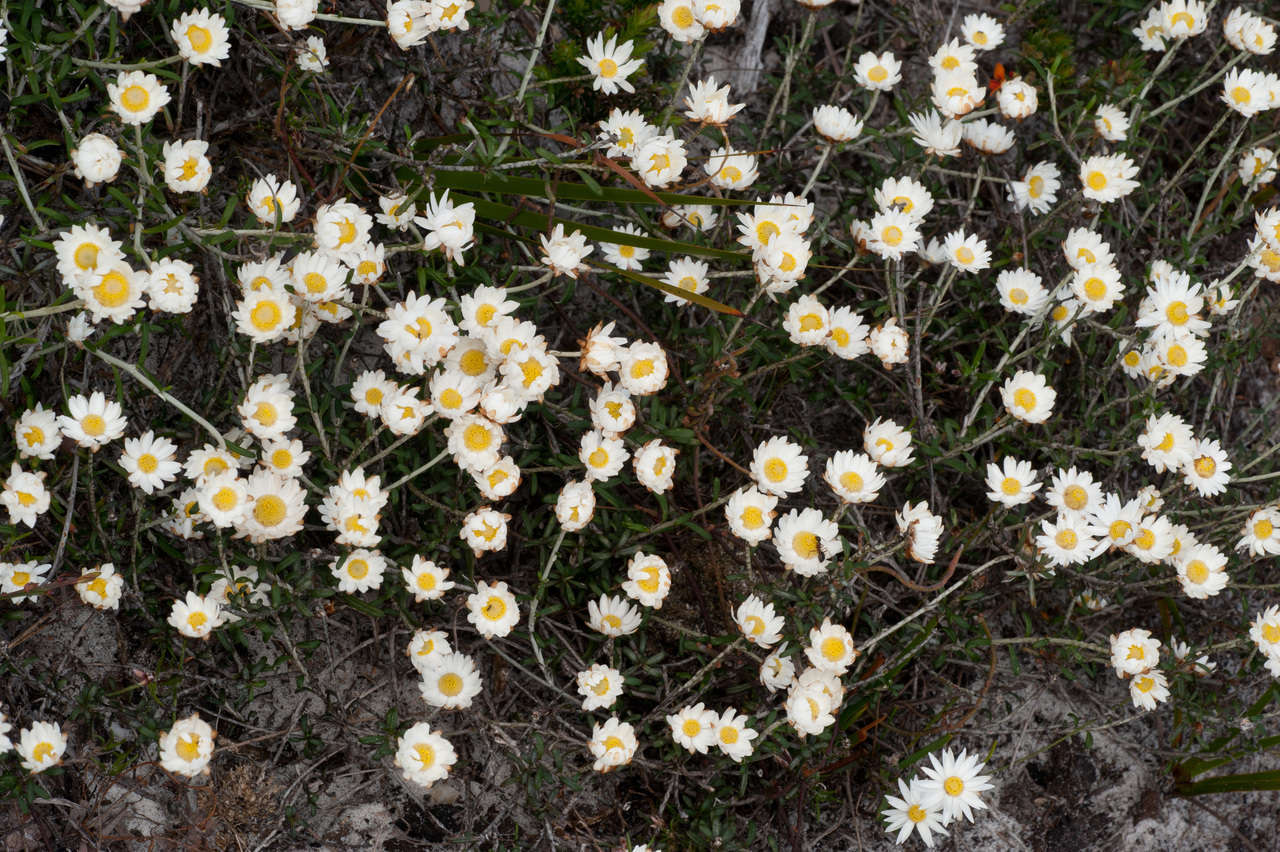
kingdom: Plantae
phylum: Tracheophyta
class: Magnoliopsida
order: Asterales
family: Asteraceae
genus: Argentipallium
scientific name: Argentipallium obtusifolium
